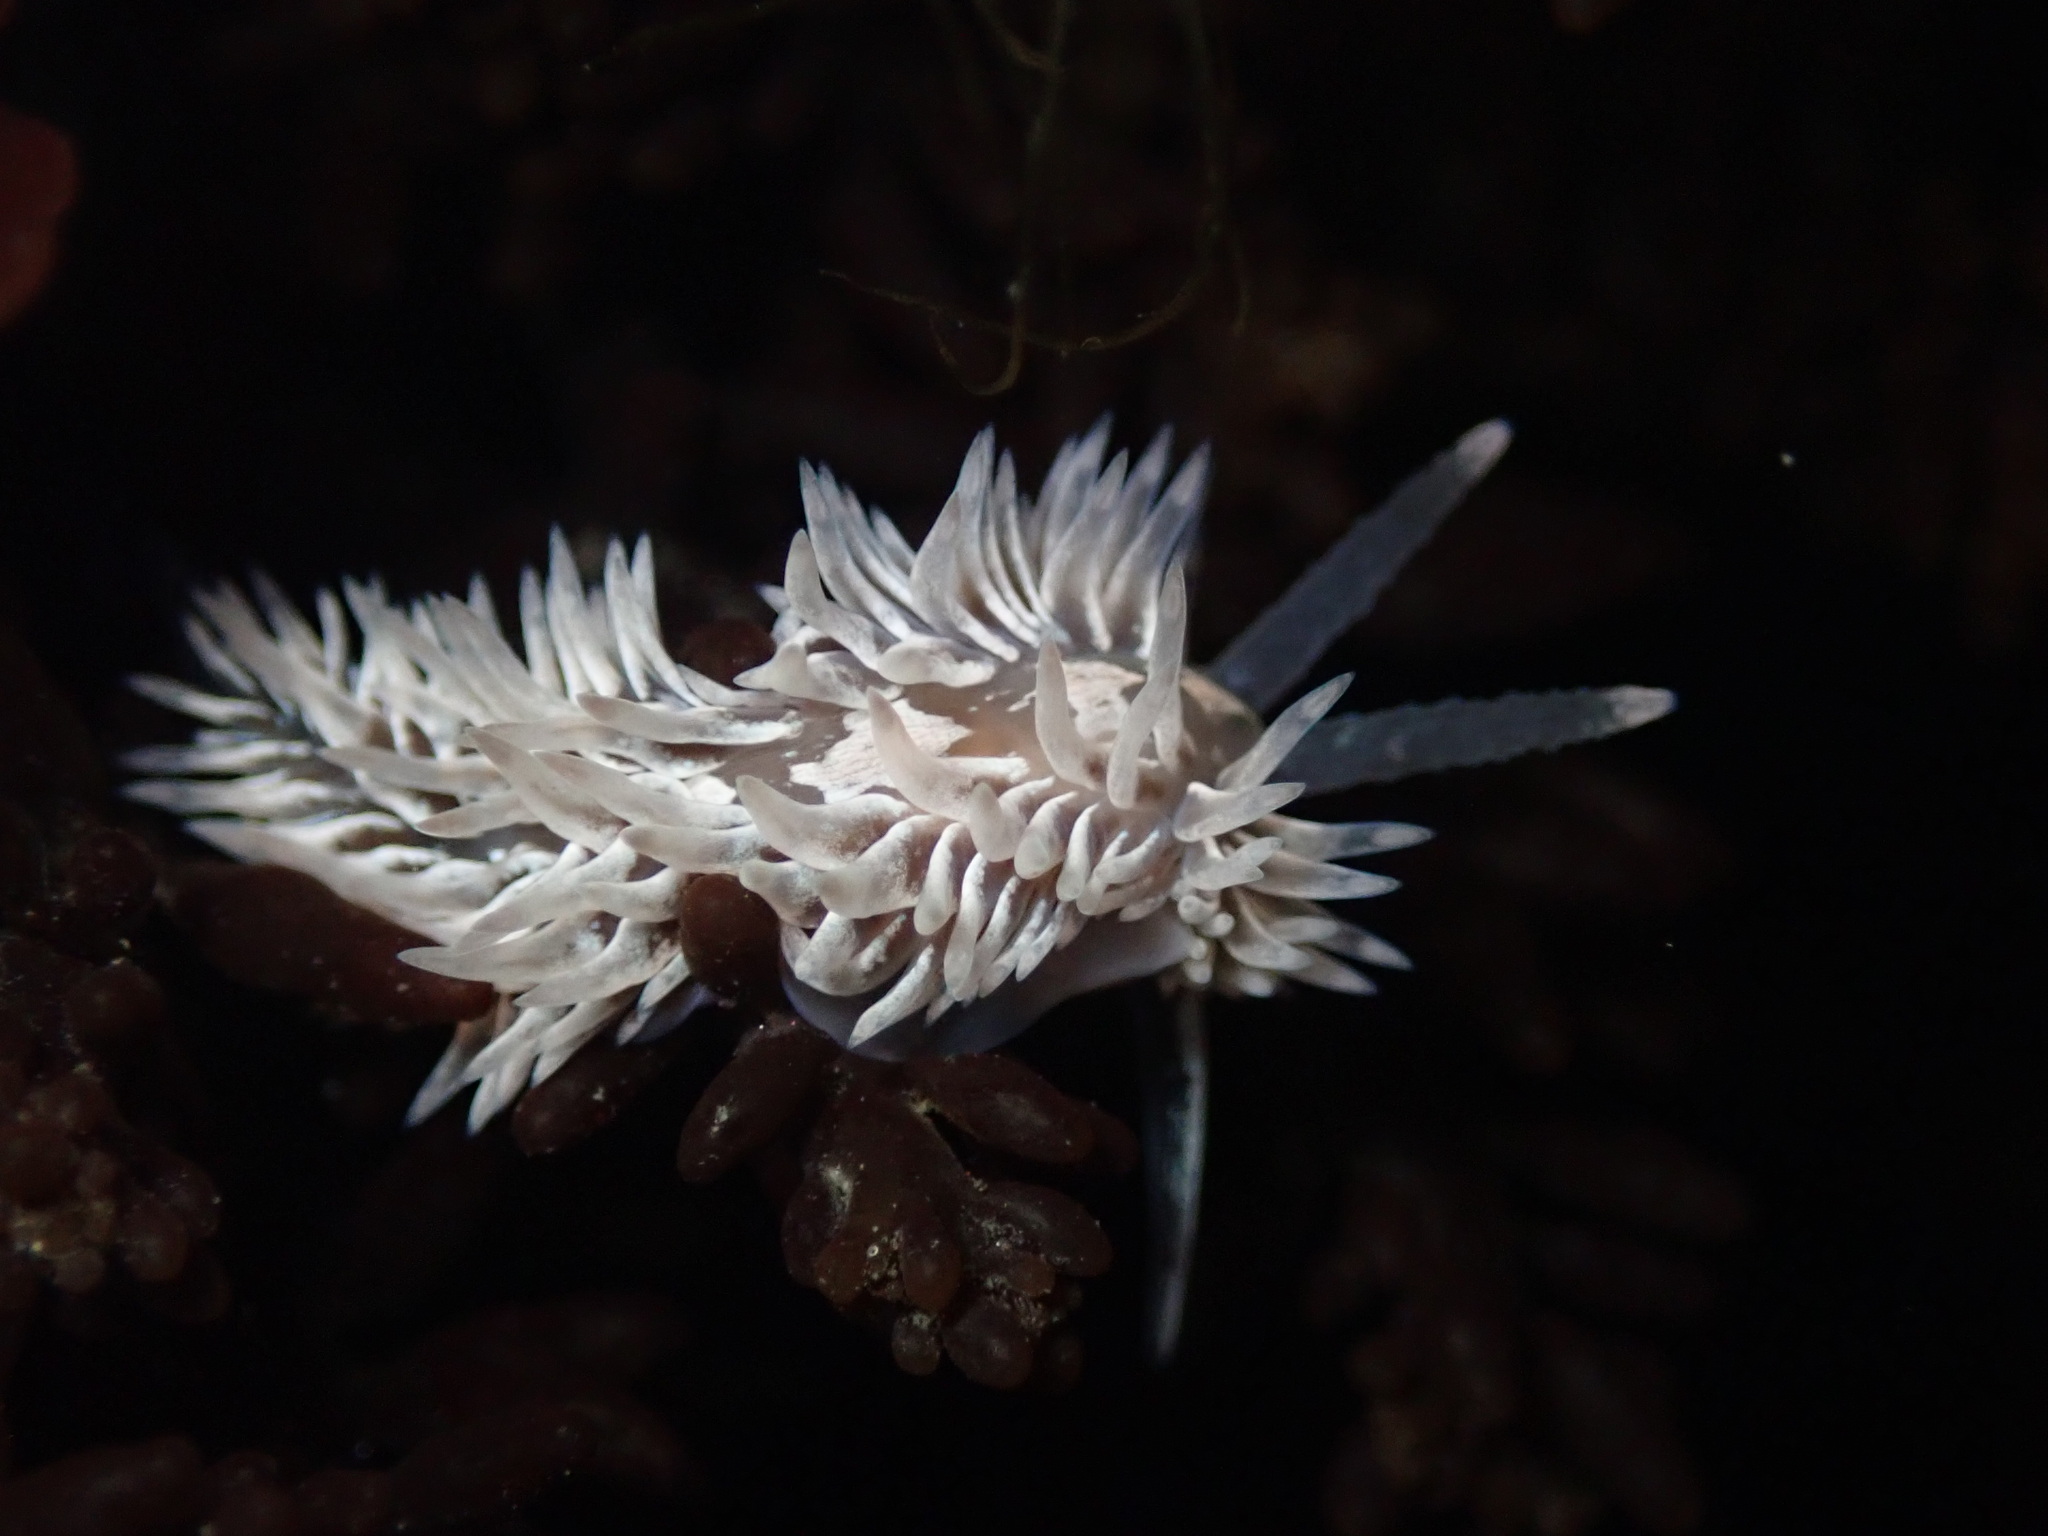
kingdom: Animalia
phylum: Mollusca
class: Gastropoda
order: Nudibranchia
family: Aeolidiidae
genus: Aeolidia
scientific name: Aeolidia loui
